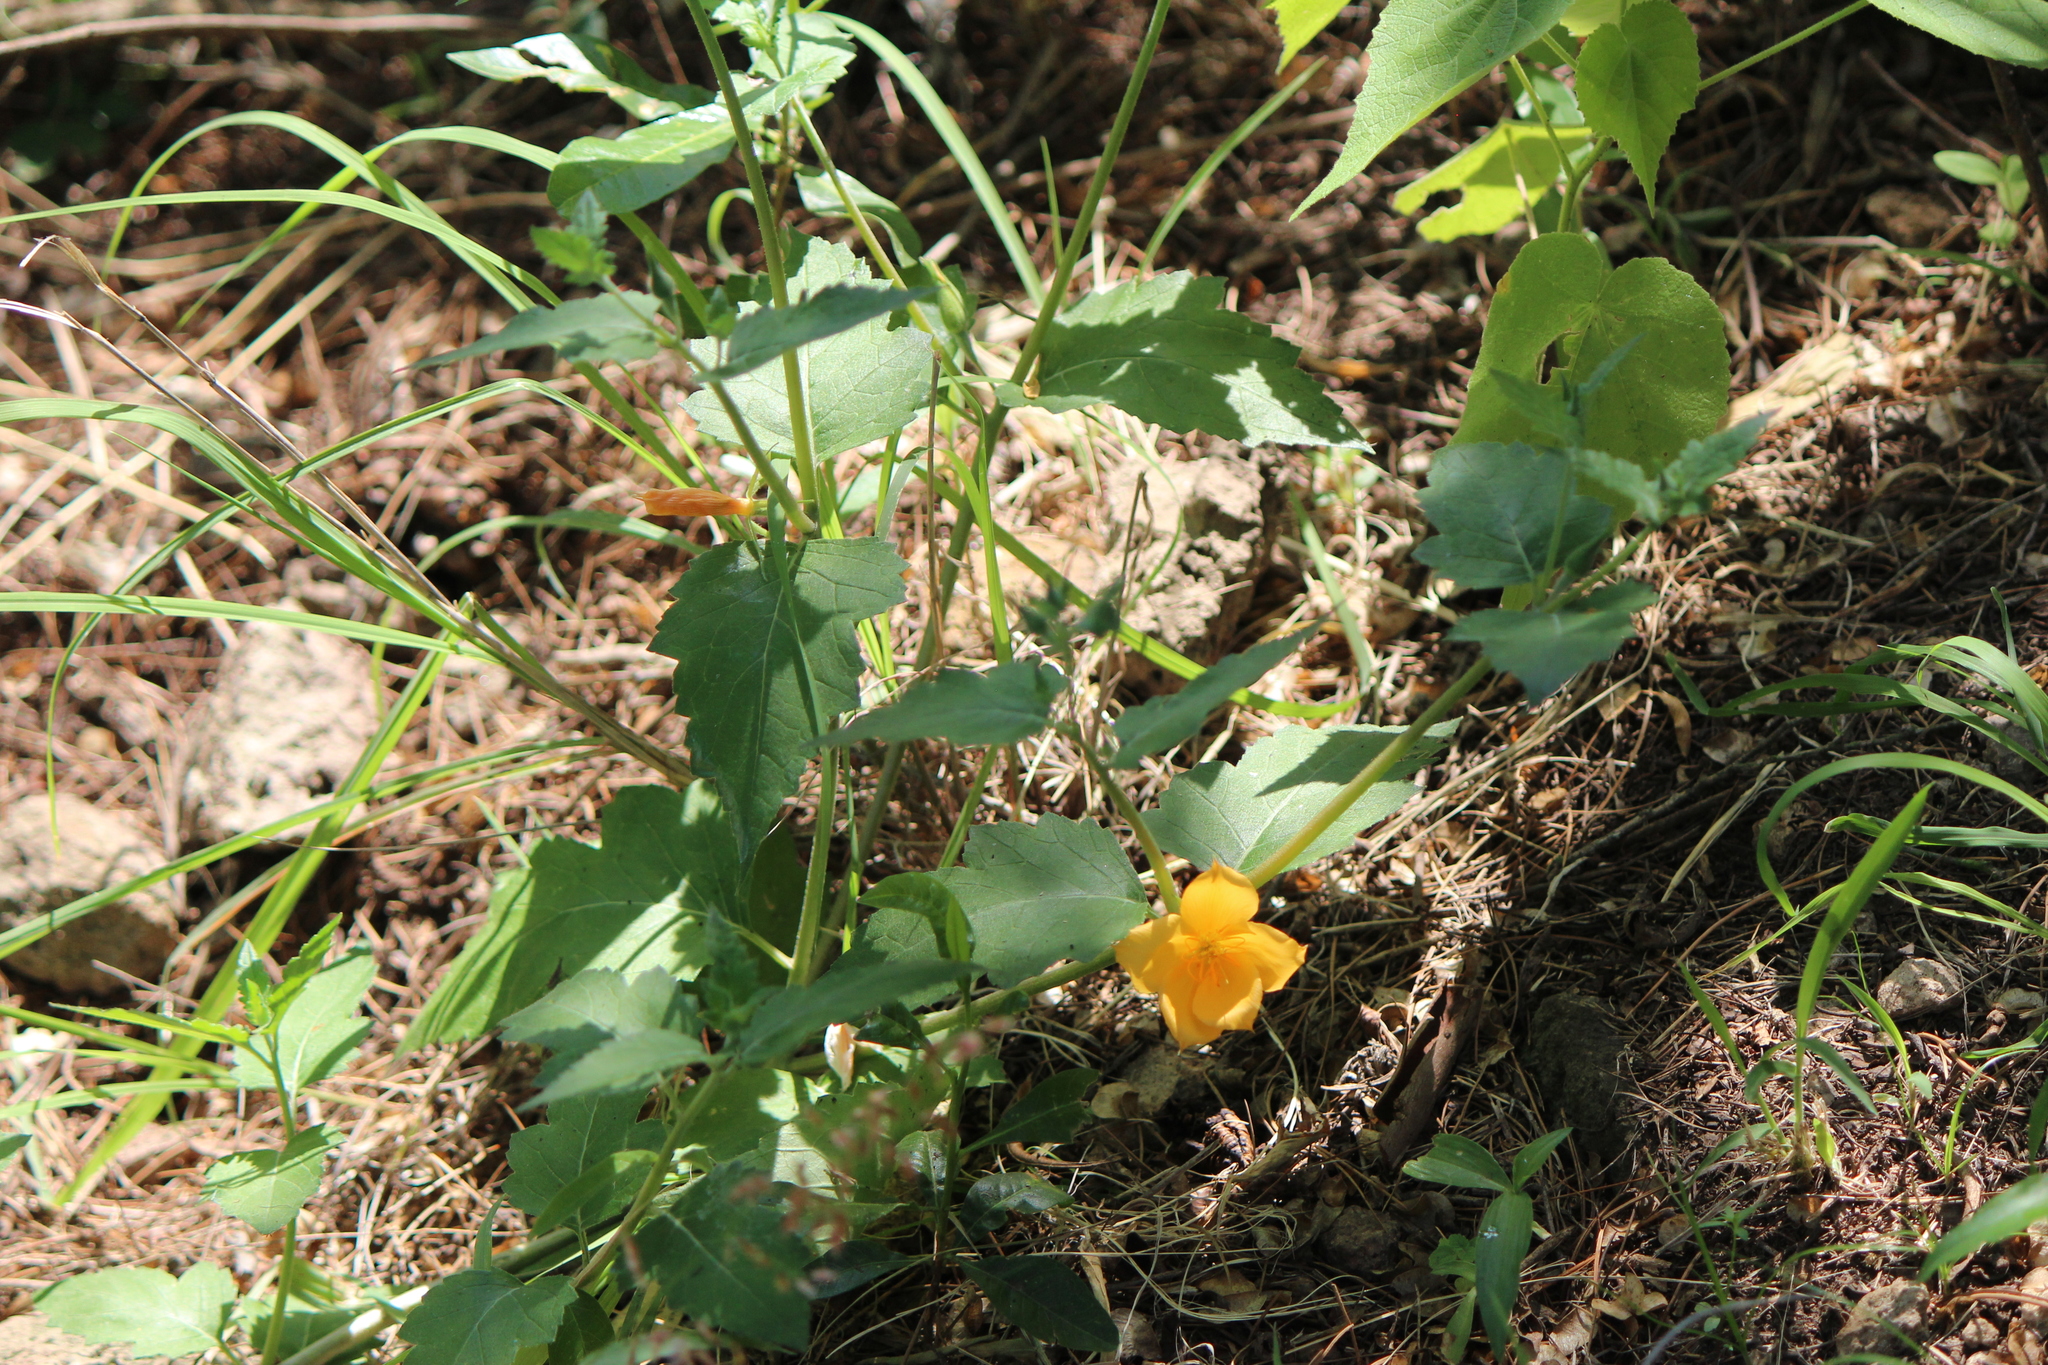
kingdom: Plantae
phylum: Tracheophyta
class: Magnoliopsida
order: Cornales
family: Loasaceae
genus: Mentzelia
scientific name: Mentzelia hispida
